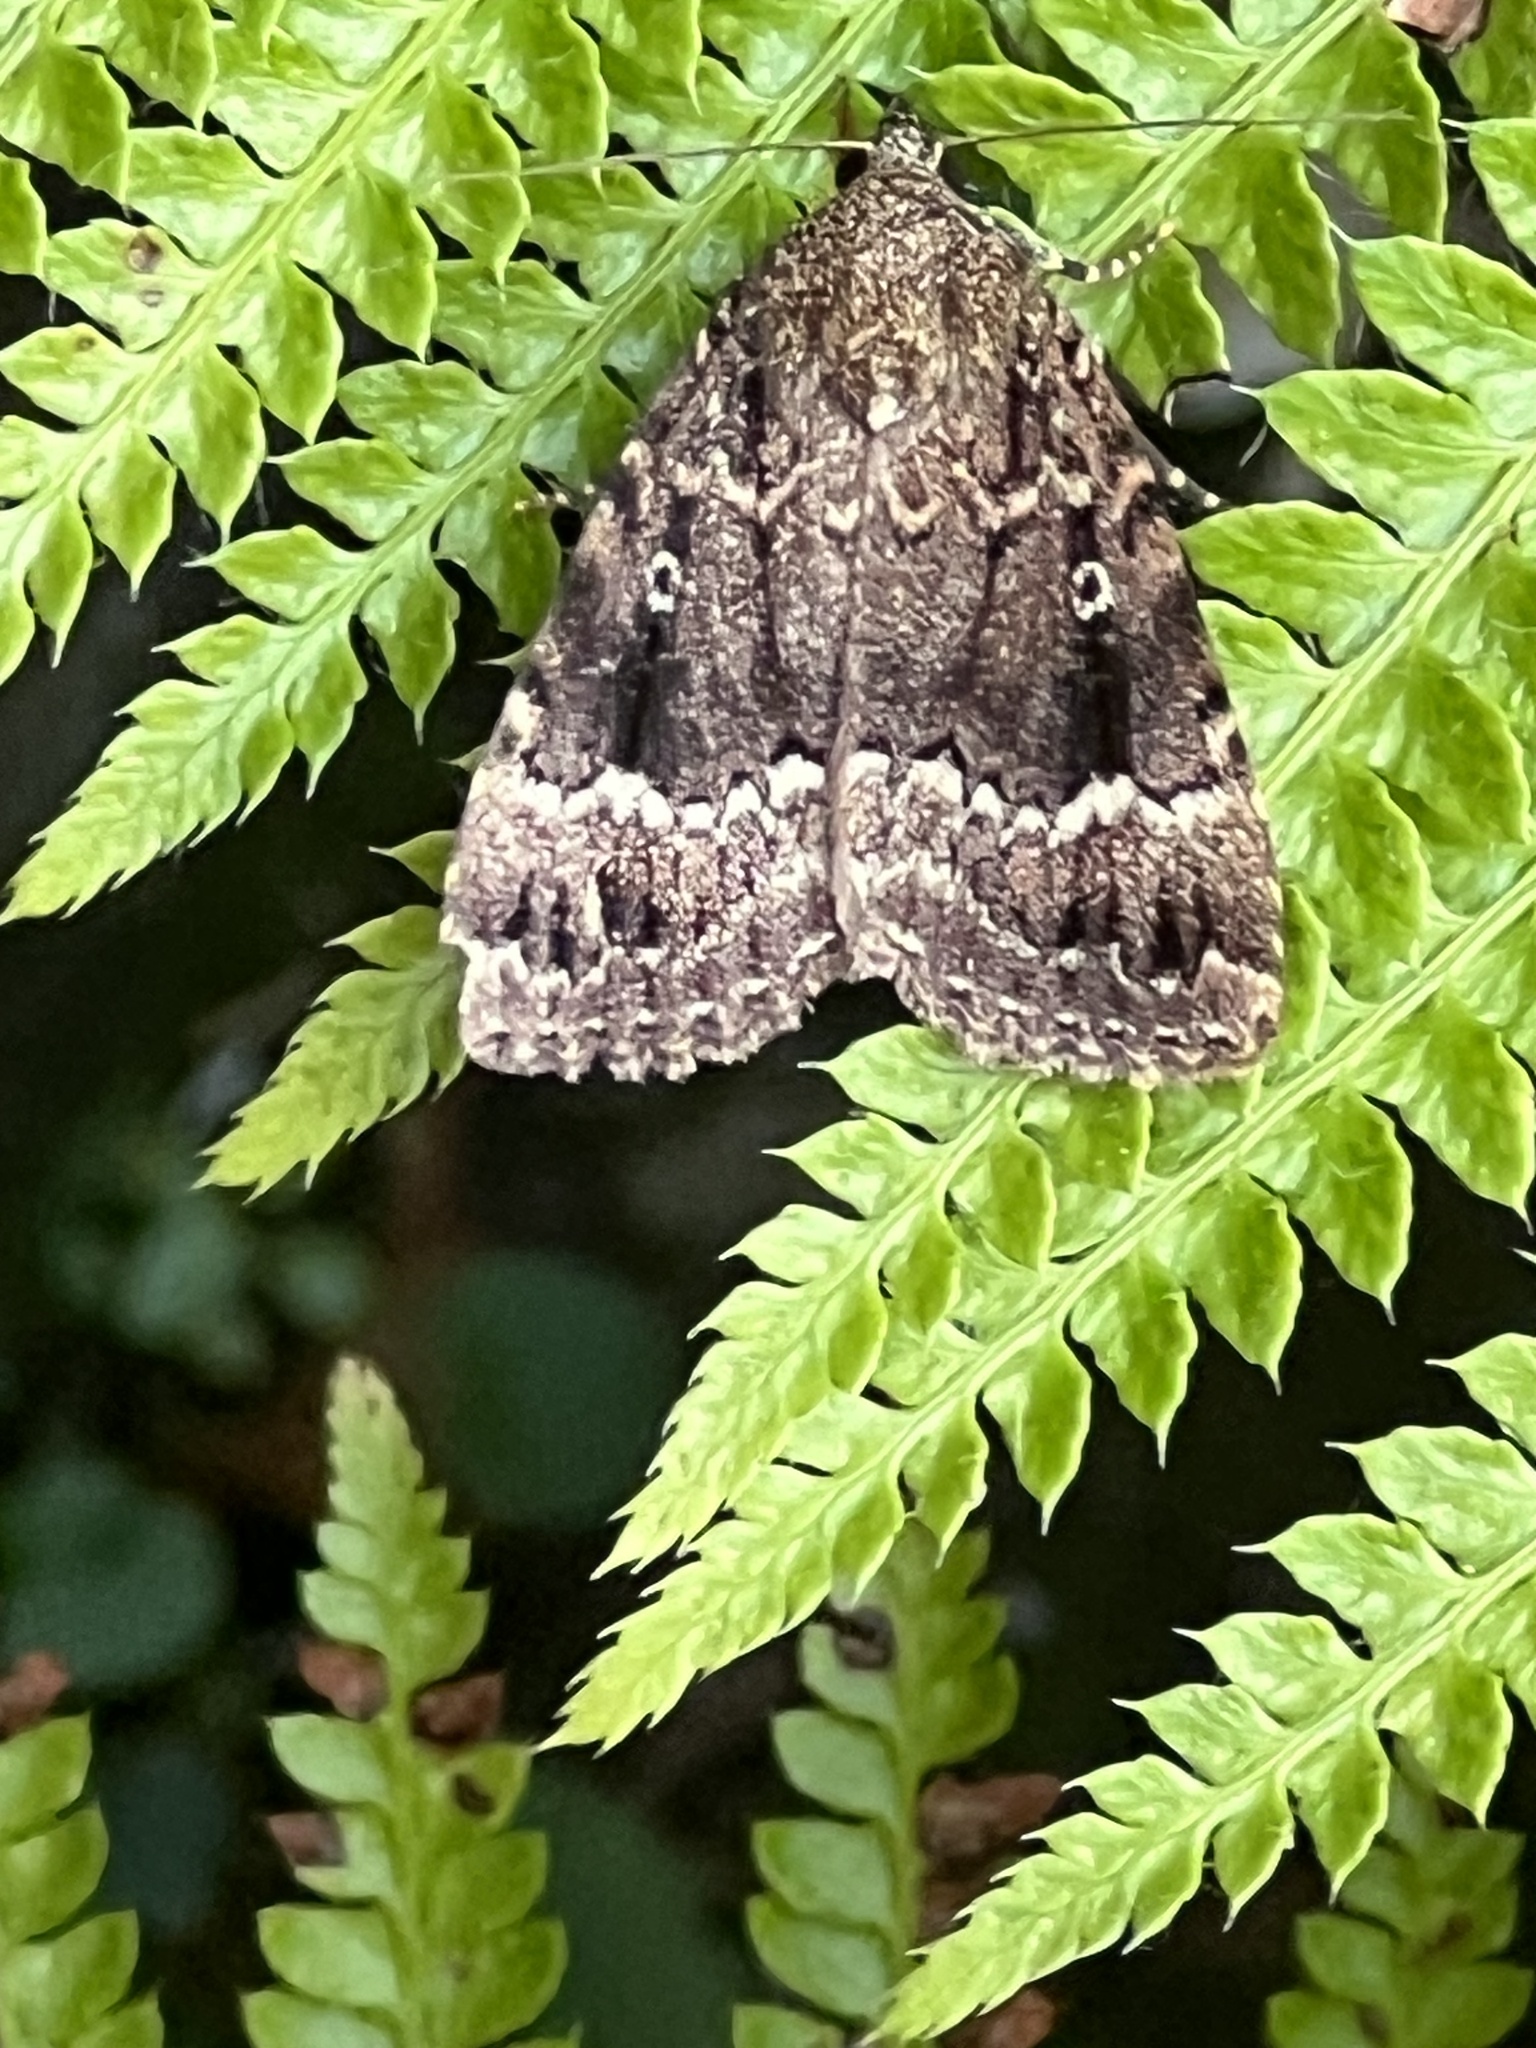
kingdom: Animalia
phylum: Arthropoda
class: Insecta
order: Lepidoptera
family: Noctuidae
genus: Amphipyra
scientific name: Amphipyra
